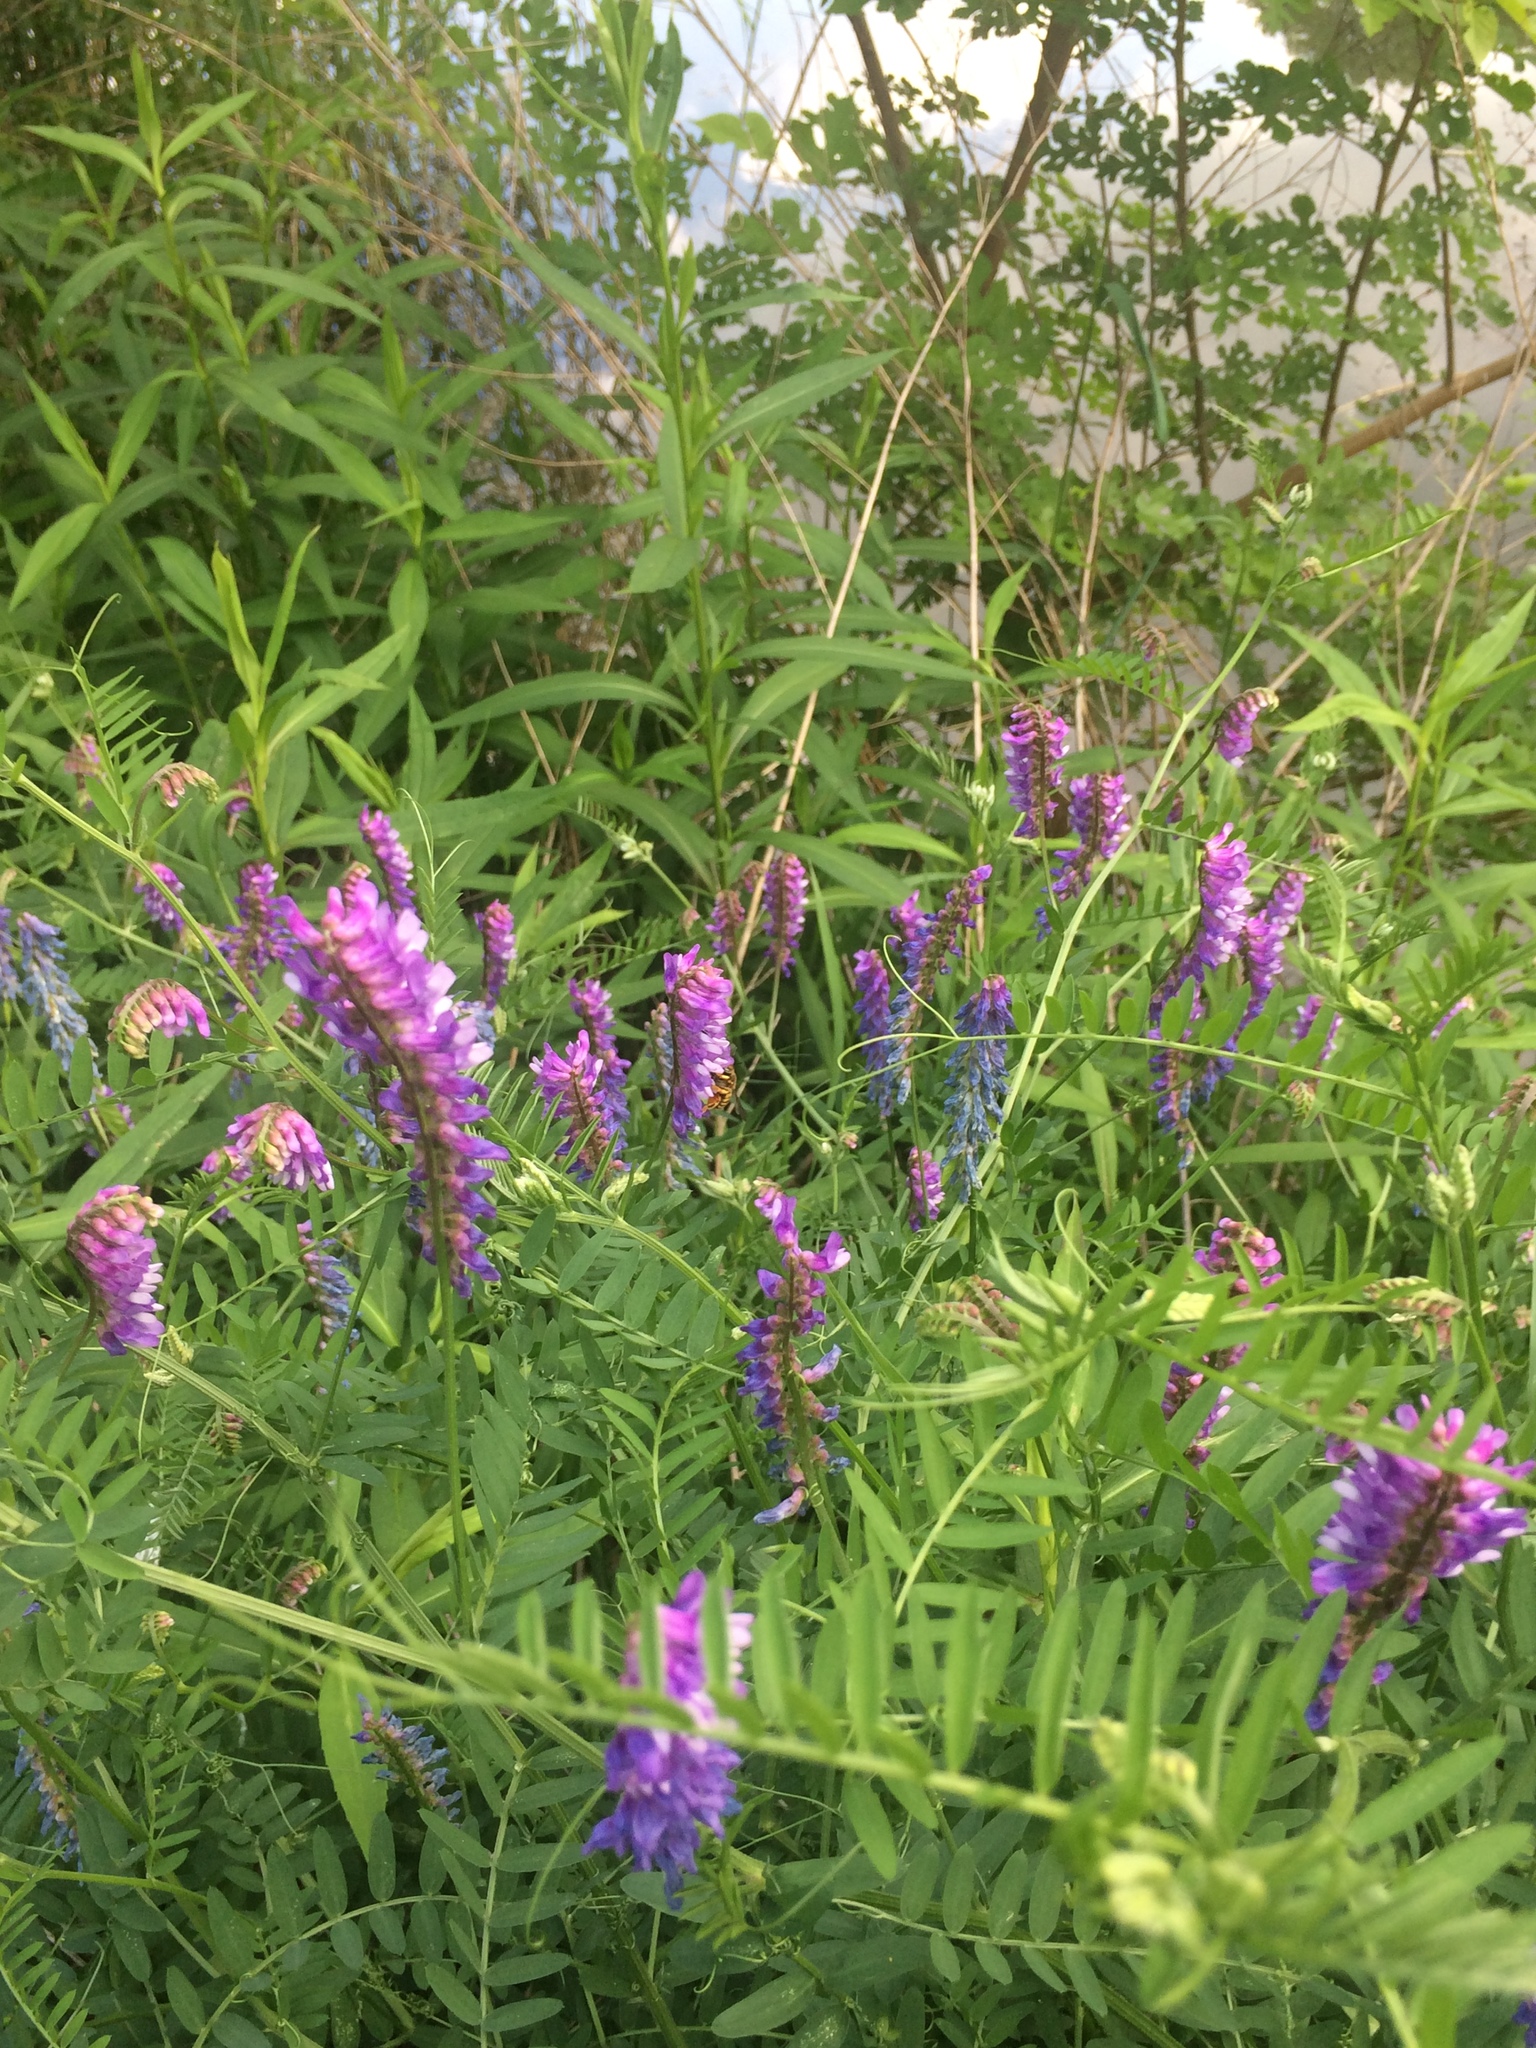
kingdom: Plantae
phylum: Tracheophyta
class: Magnoliopsida
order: Fabales
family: Fabaceae
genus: Vicia
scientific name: Vicia cracca
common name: Bird vetch
